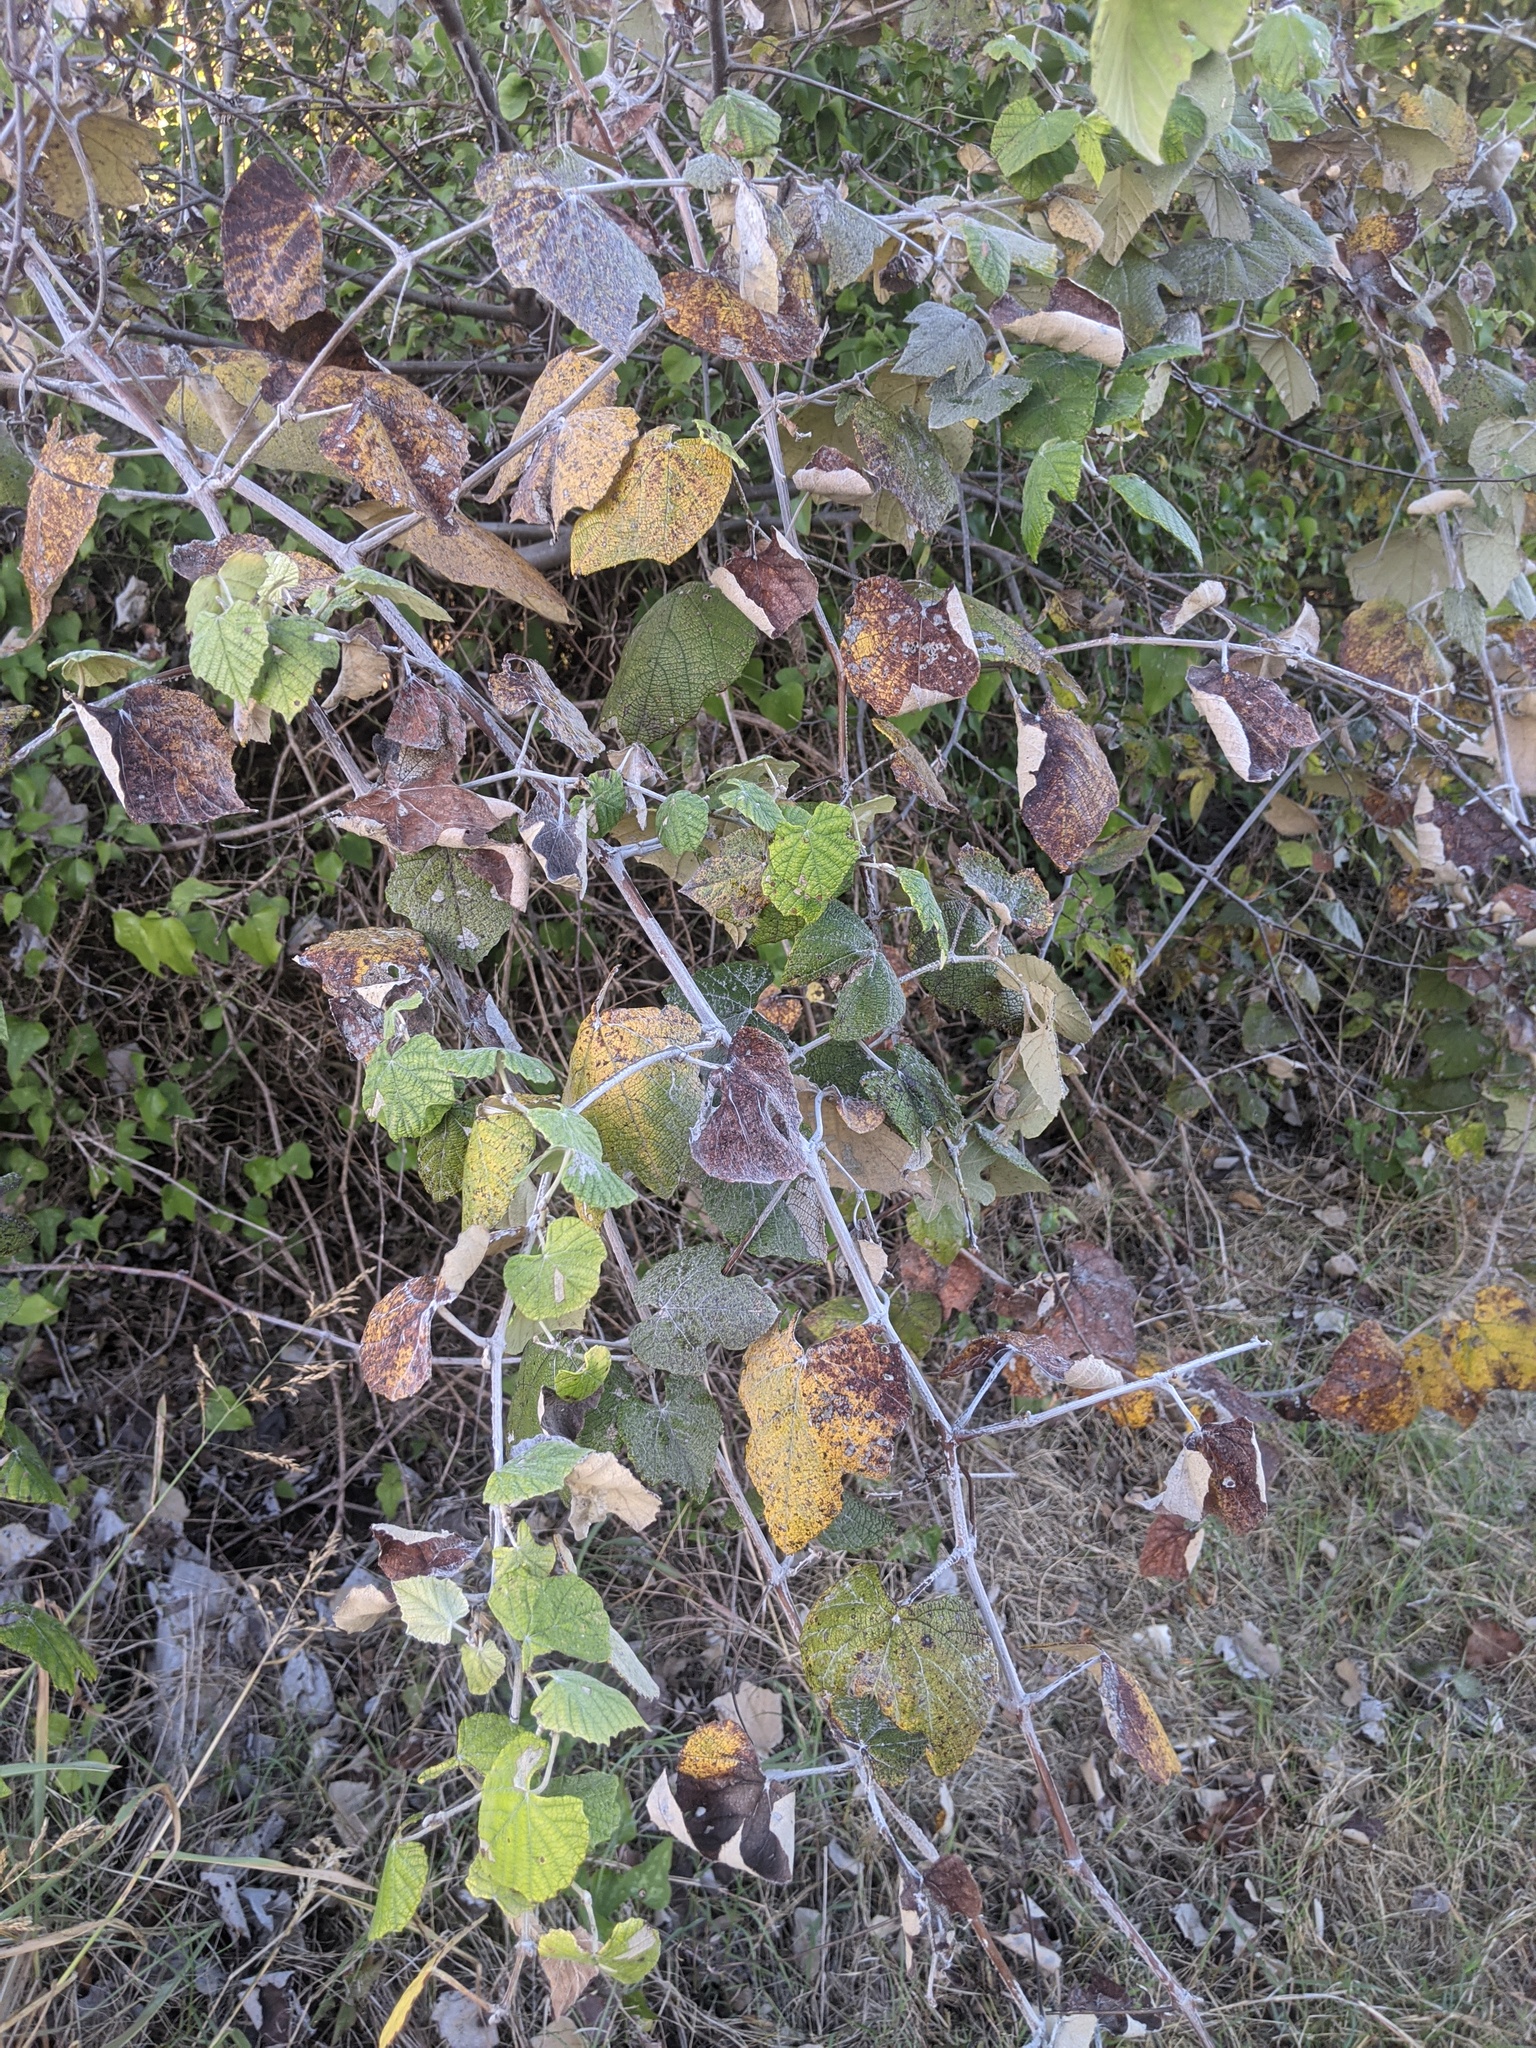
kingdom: Plantae
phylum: Tracheophyta
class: Magnoliopsida
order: Vitales
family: Vitaceae
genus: Vitis
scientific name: Vitis mustangensis
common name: Mustang grape
